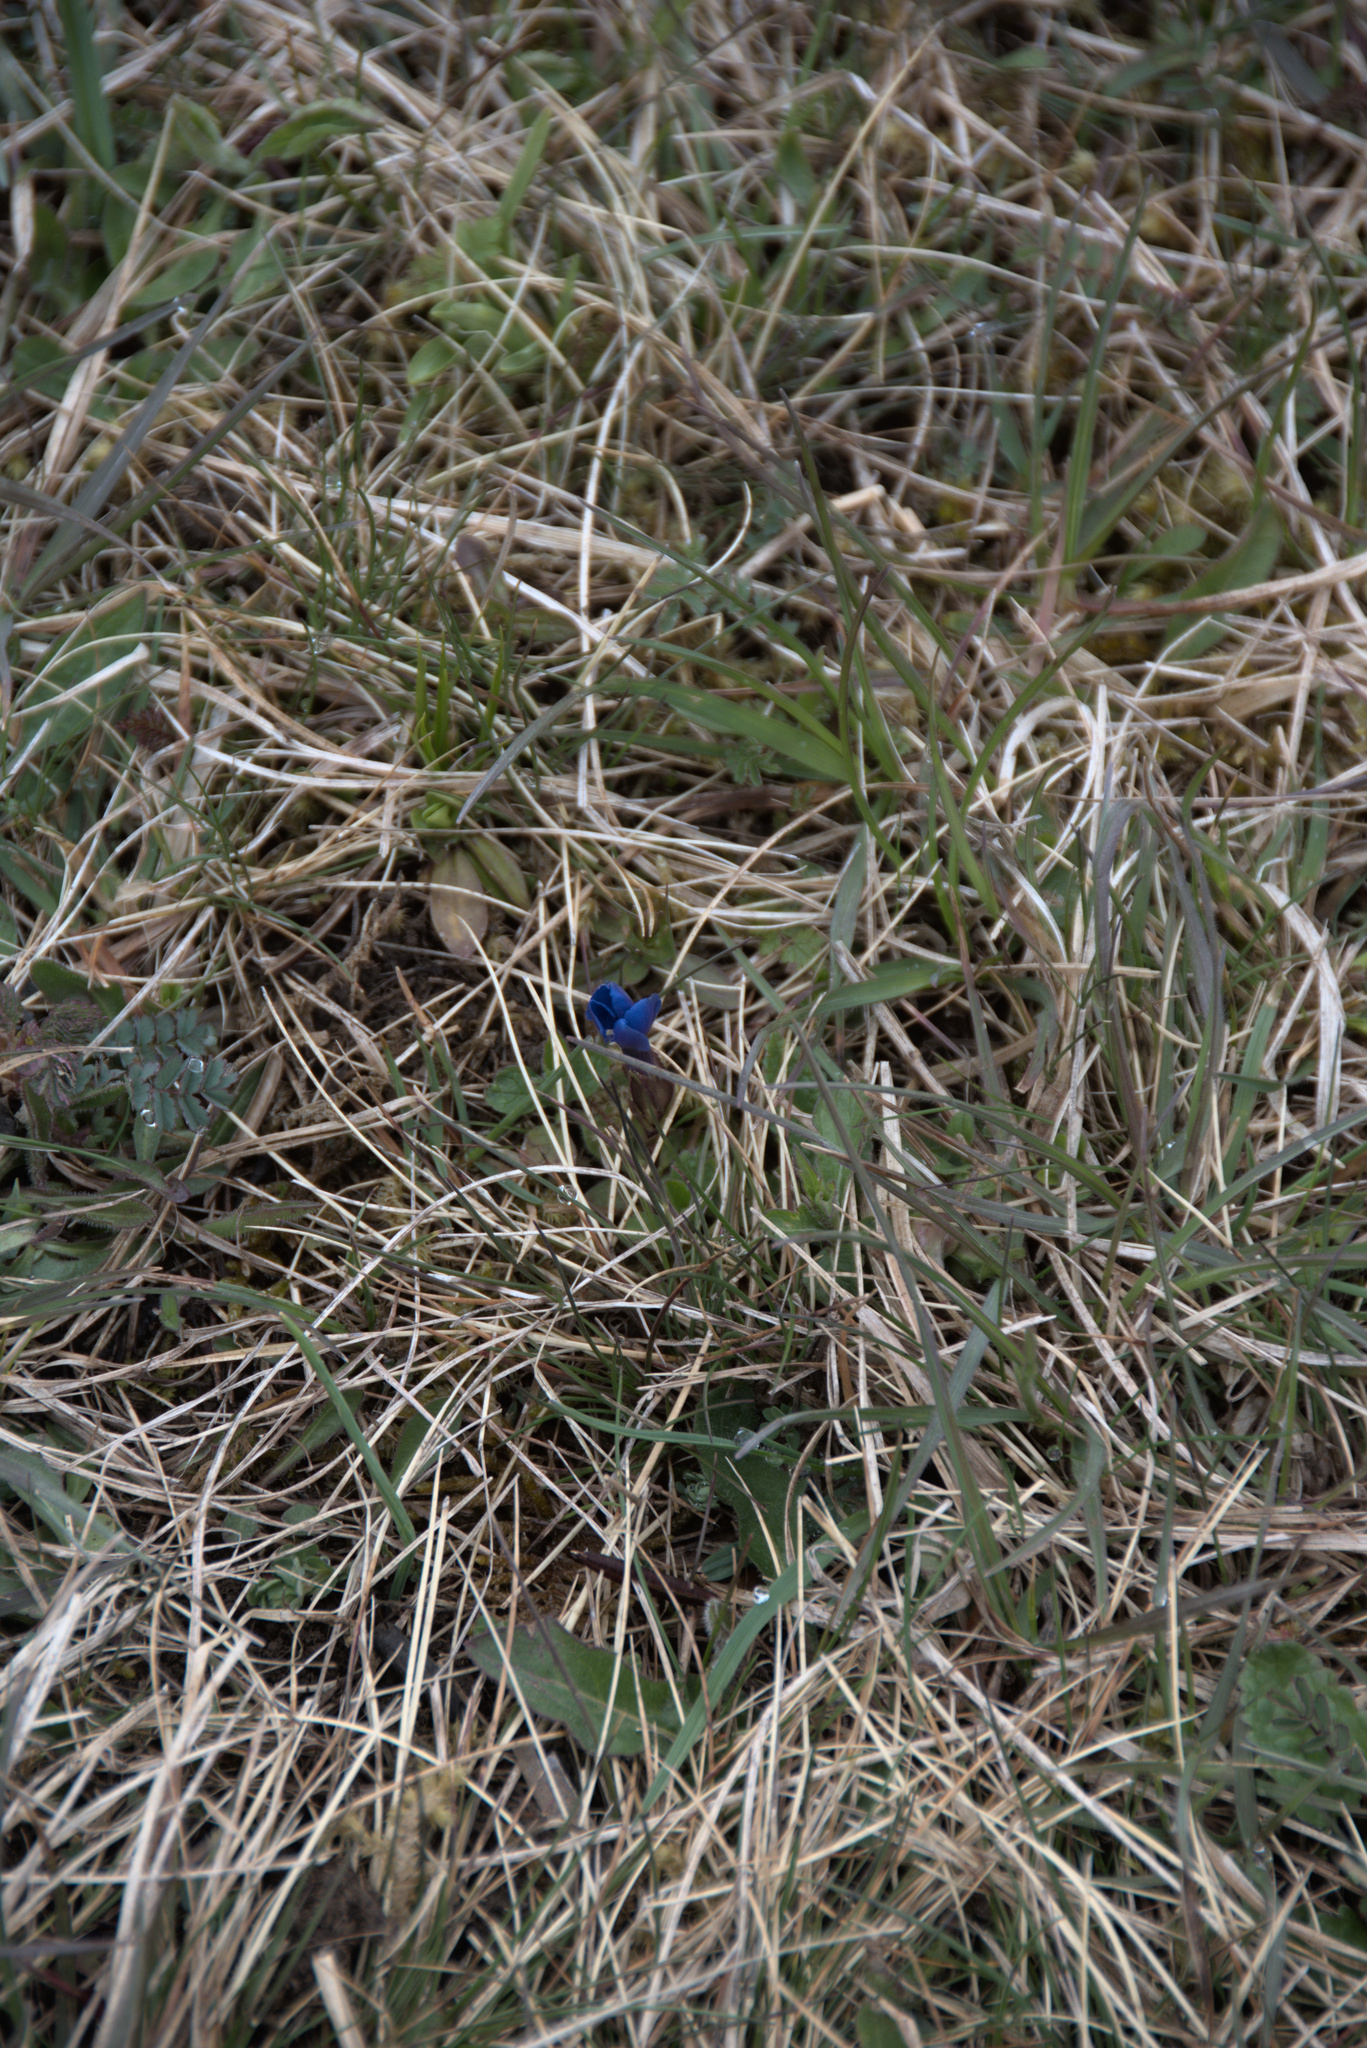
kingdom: Plantae
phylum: Tracheophyta
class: Magnoliopsida
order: Gentianales
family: Gentianaceae
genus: Gentiana
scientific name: Gentiana verna
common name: Spring gentian
